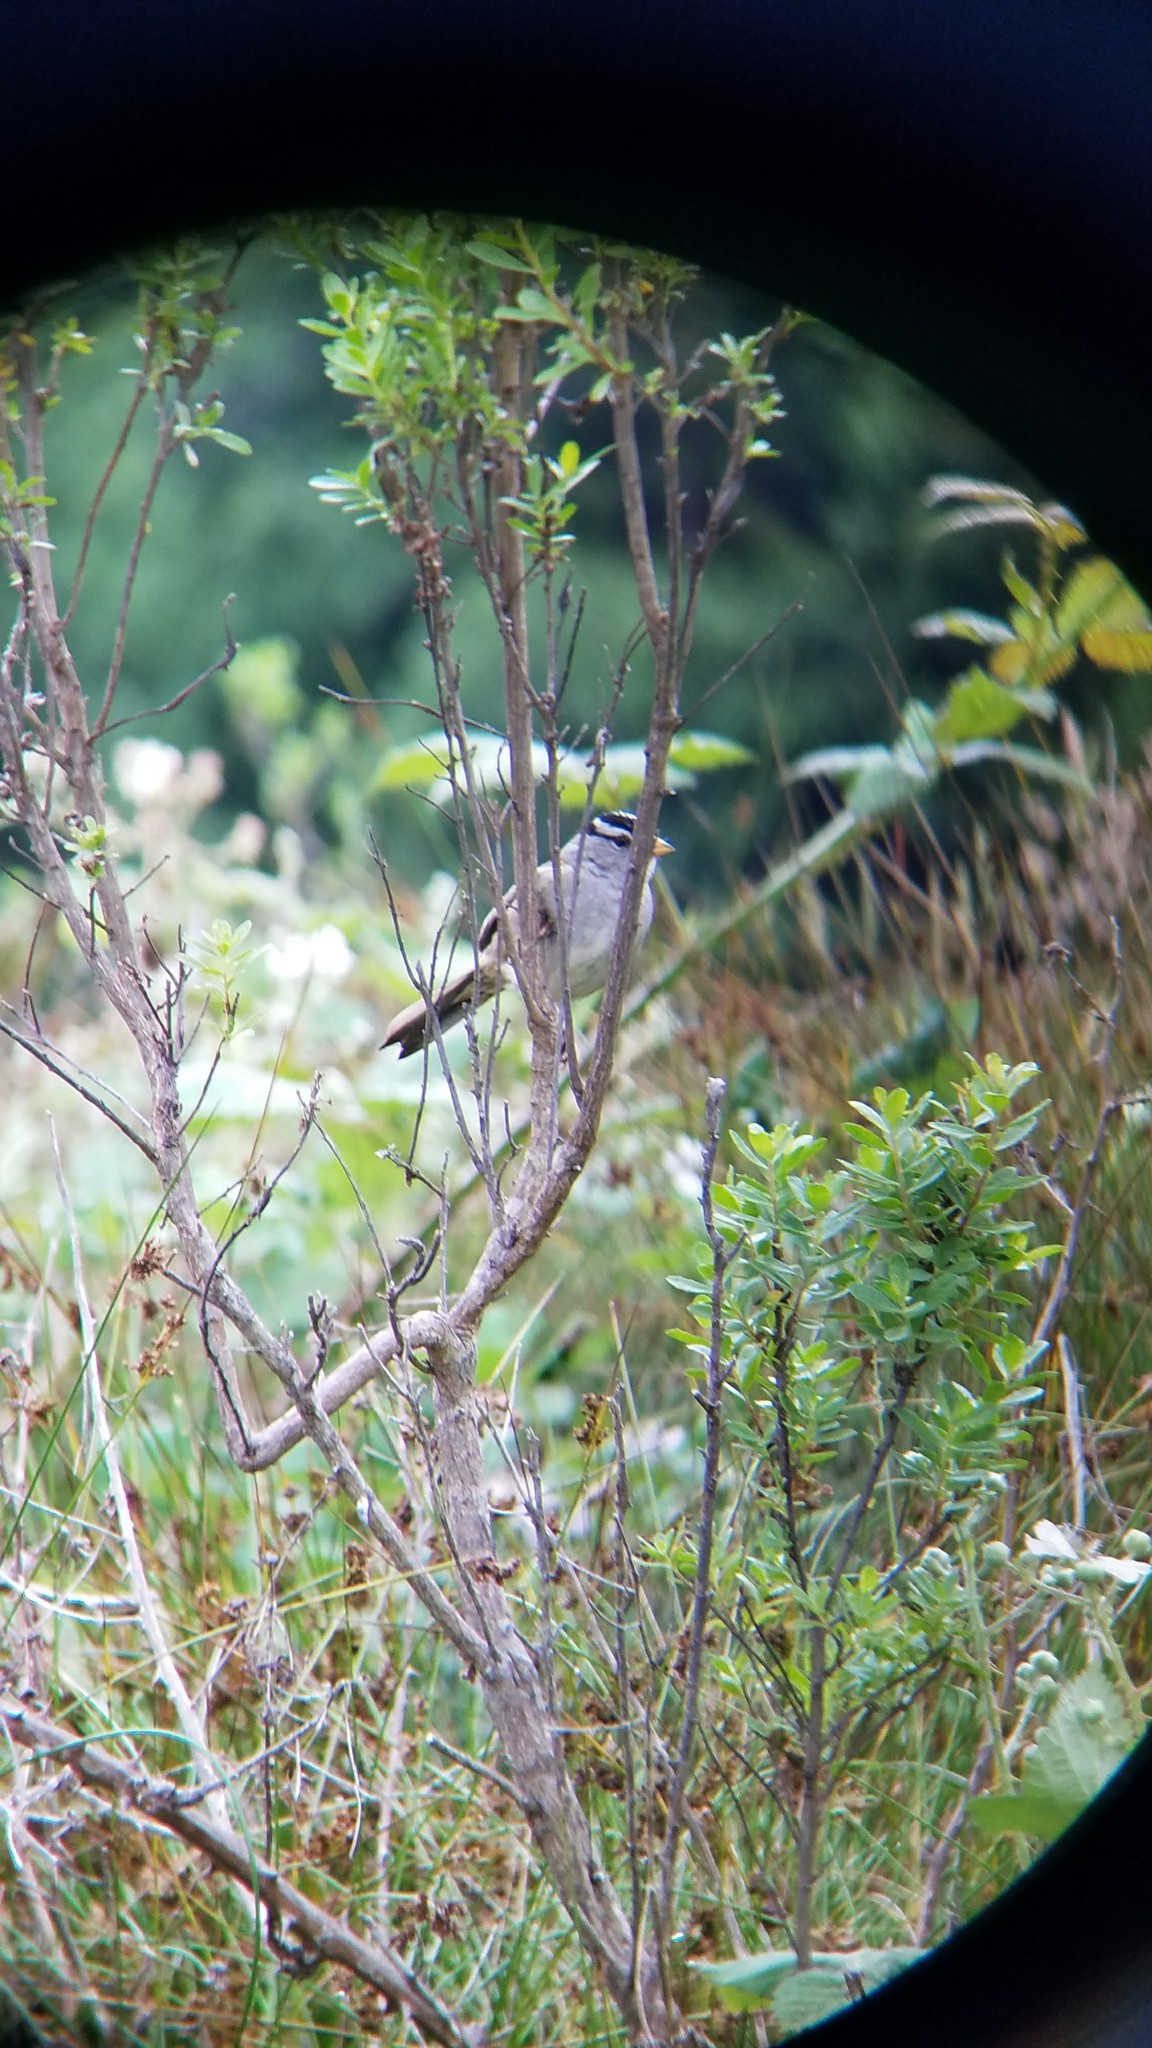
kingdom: Animalia
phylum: Chordata
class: Aves
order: Passeriformes
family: Passerellidae
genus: Zonotrichia
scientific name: Zonotrichia leucophrys
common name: White-crowned sparrow
